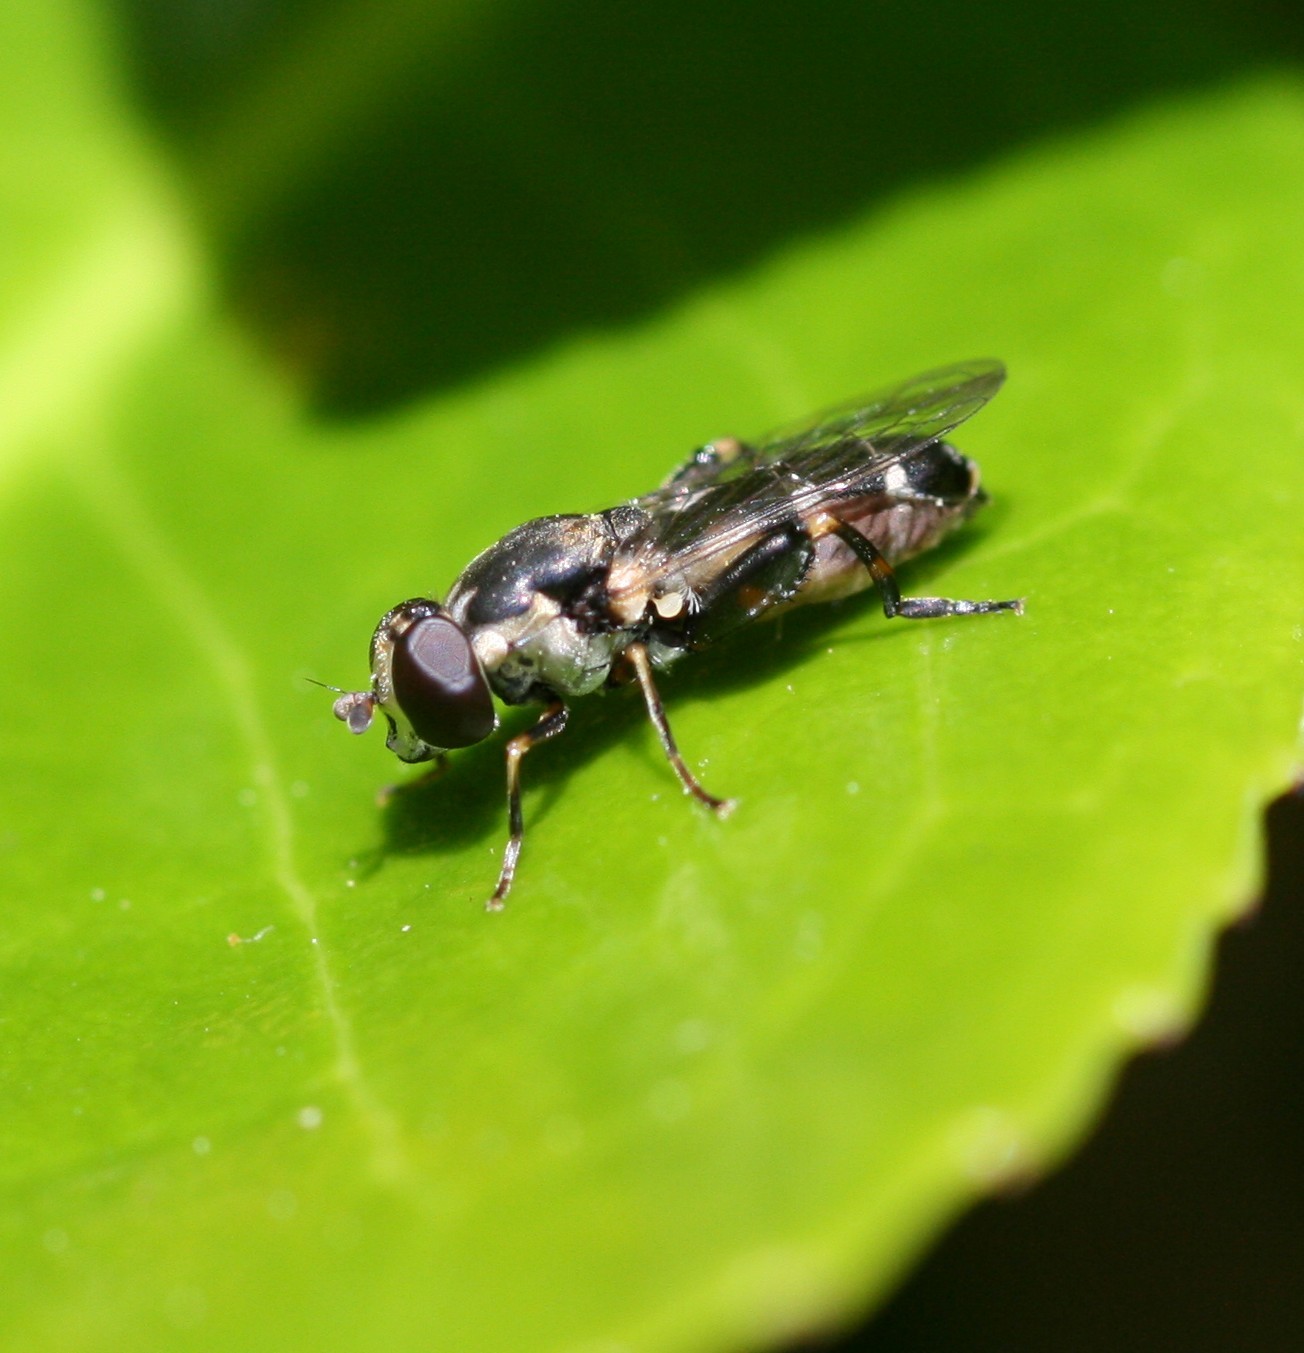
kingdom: Animalia
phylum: Arthropoda
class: Insecta
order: Diptera
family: Syrphidae
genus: Syritta
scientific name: Syritta pipiens
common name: Hover fly
